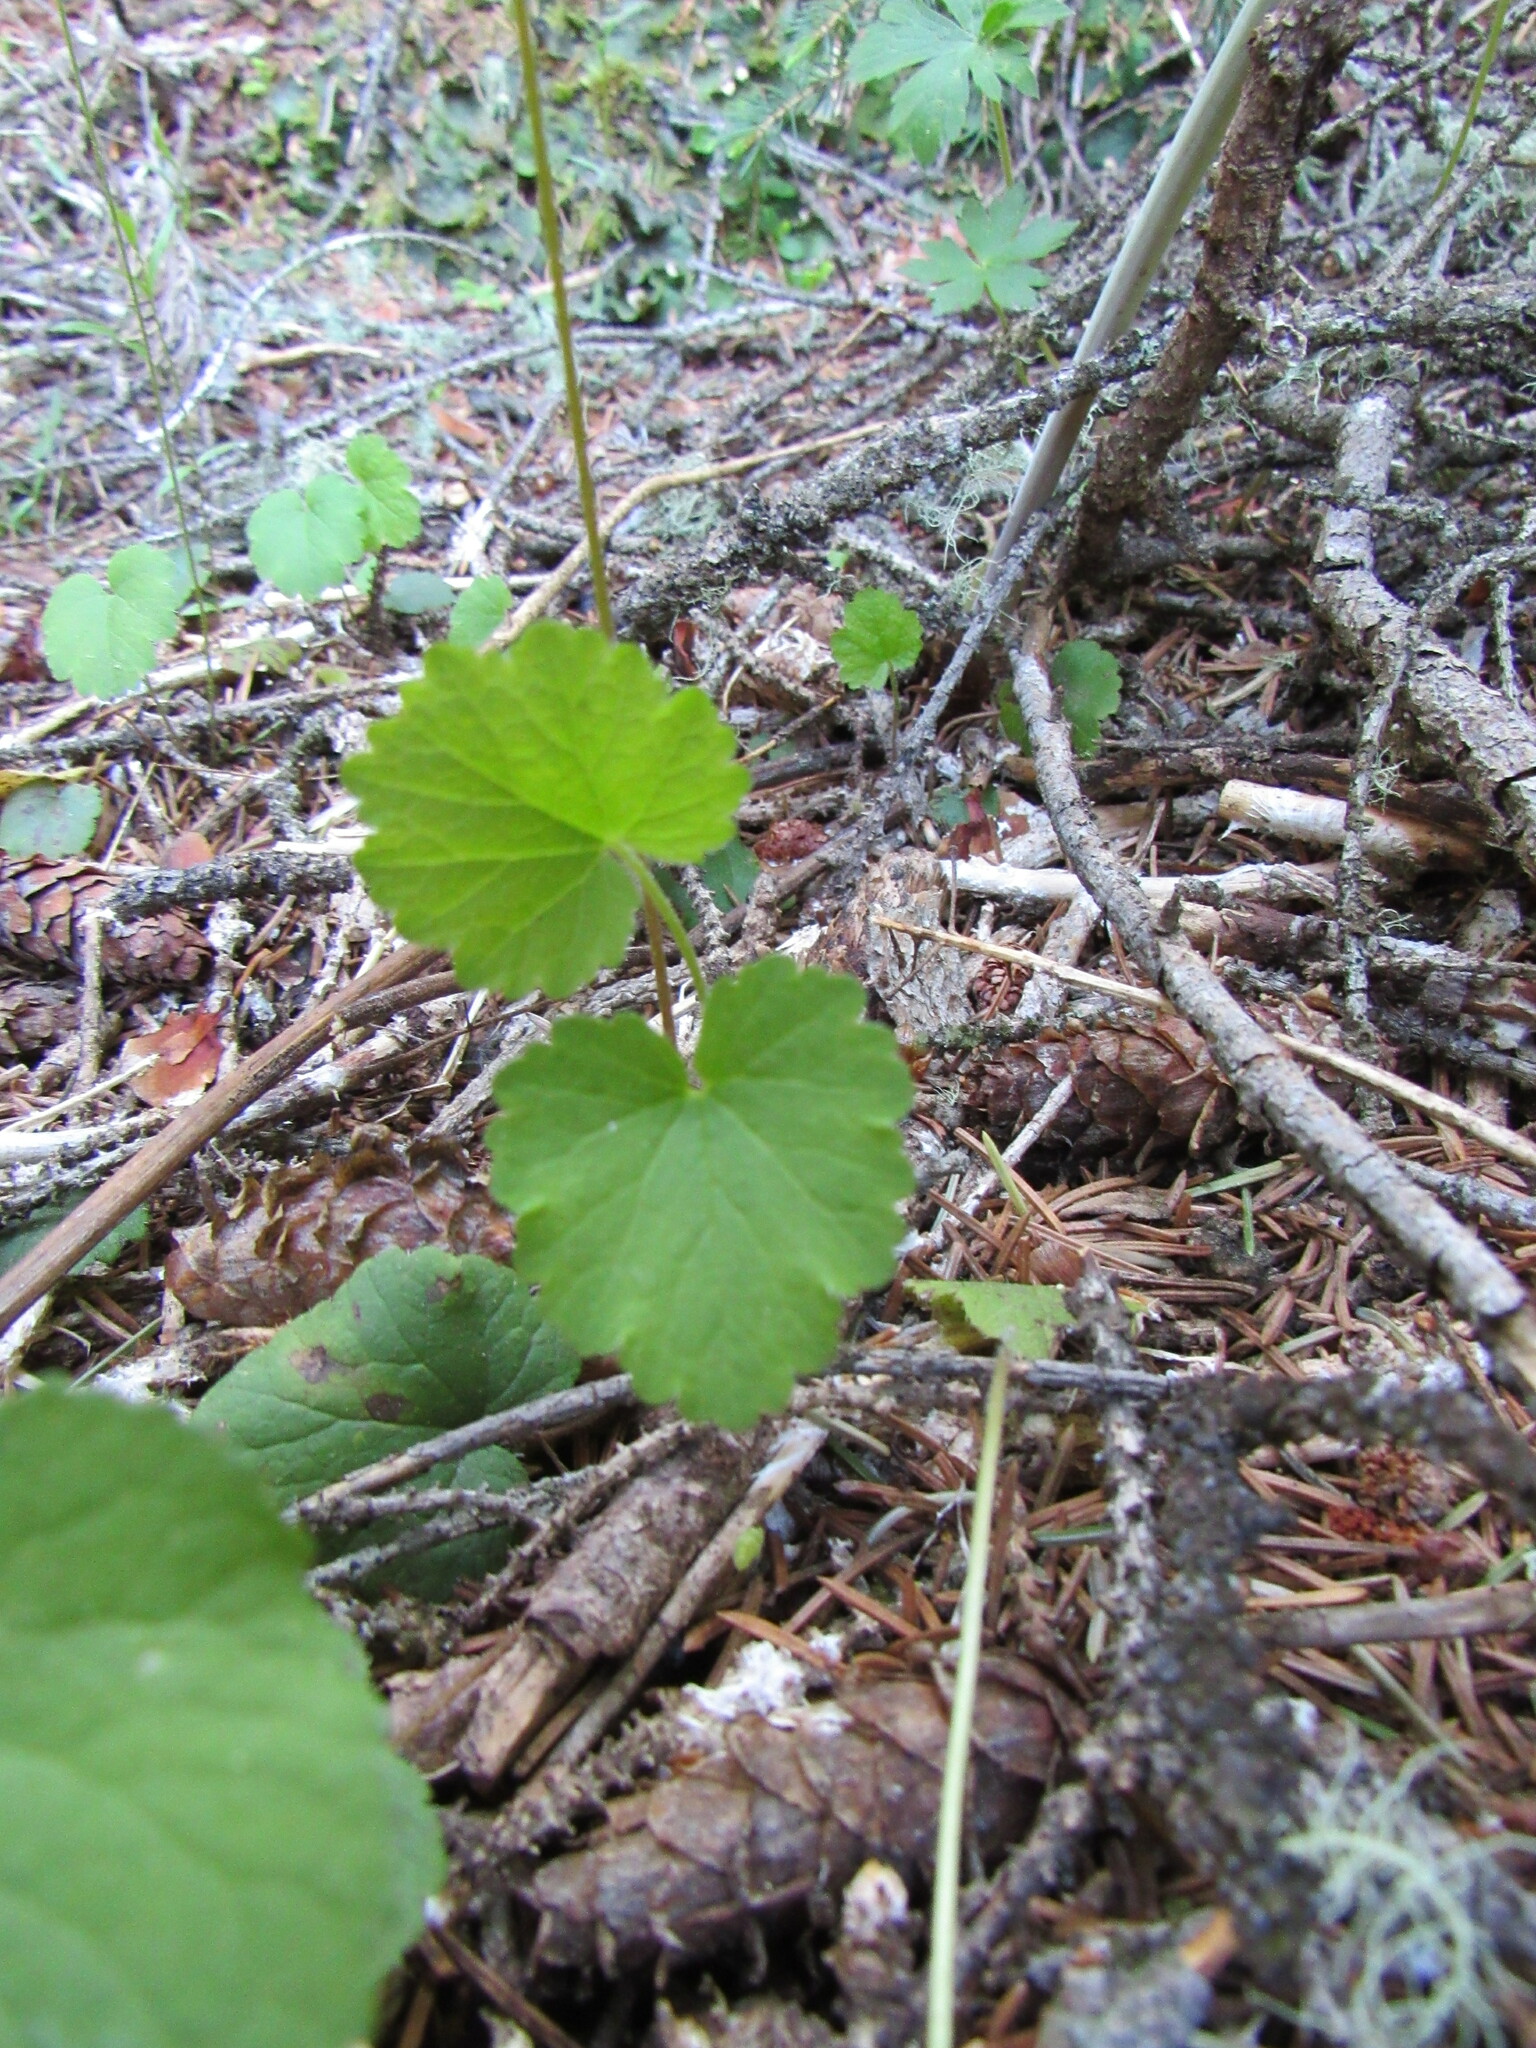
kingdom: Plantae
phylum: Tracheophyta
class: Magnoliopsida
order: Saxifragales
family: Saxifragaceae
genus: Ozomelis
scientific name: Ozomelis stauropetala
